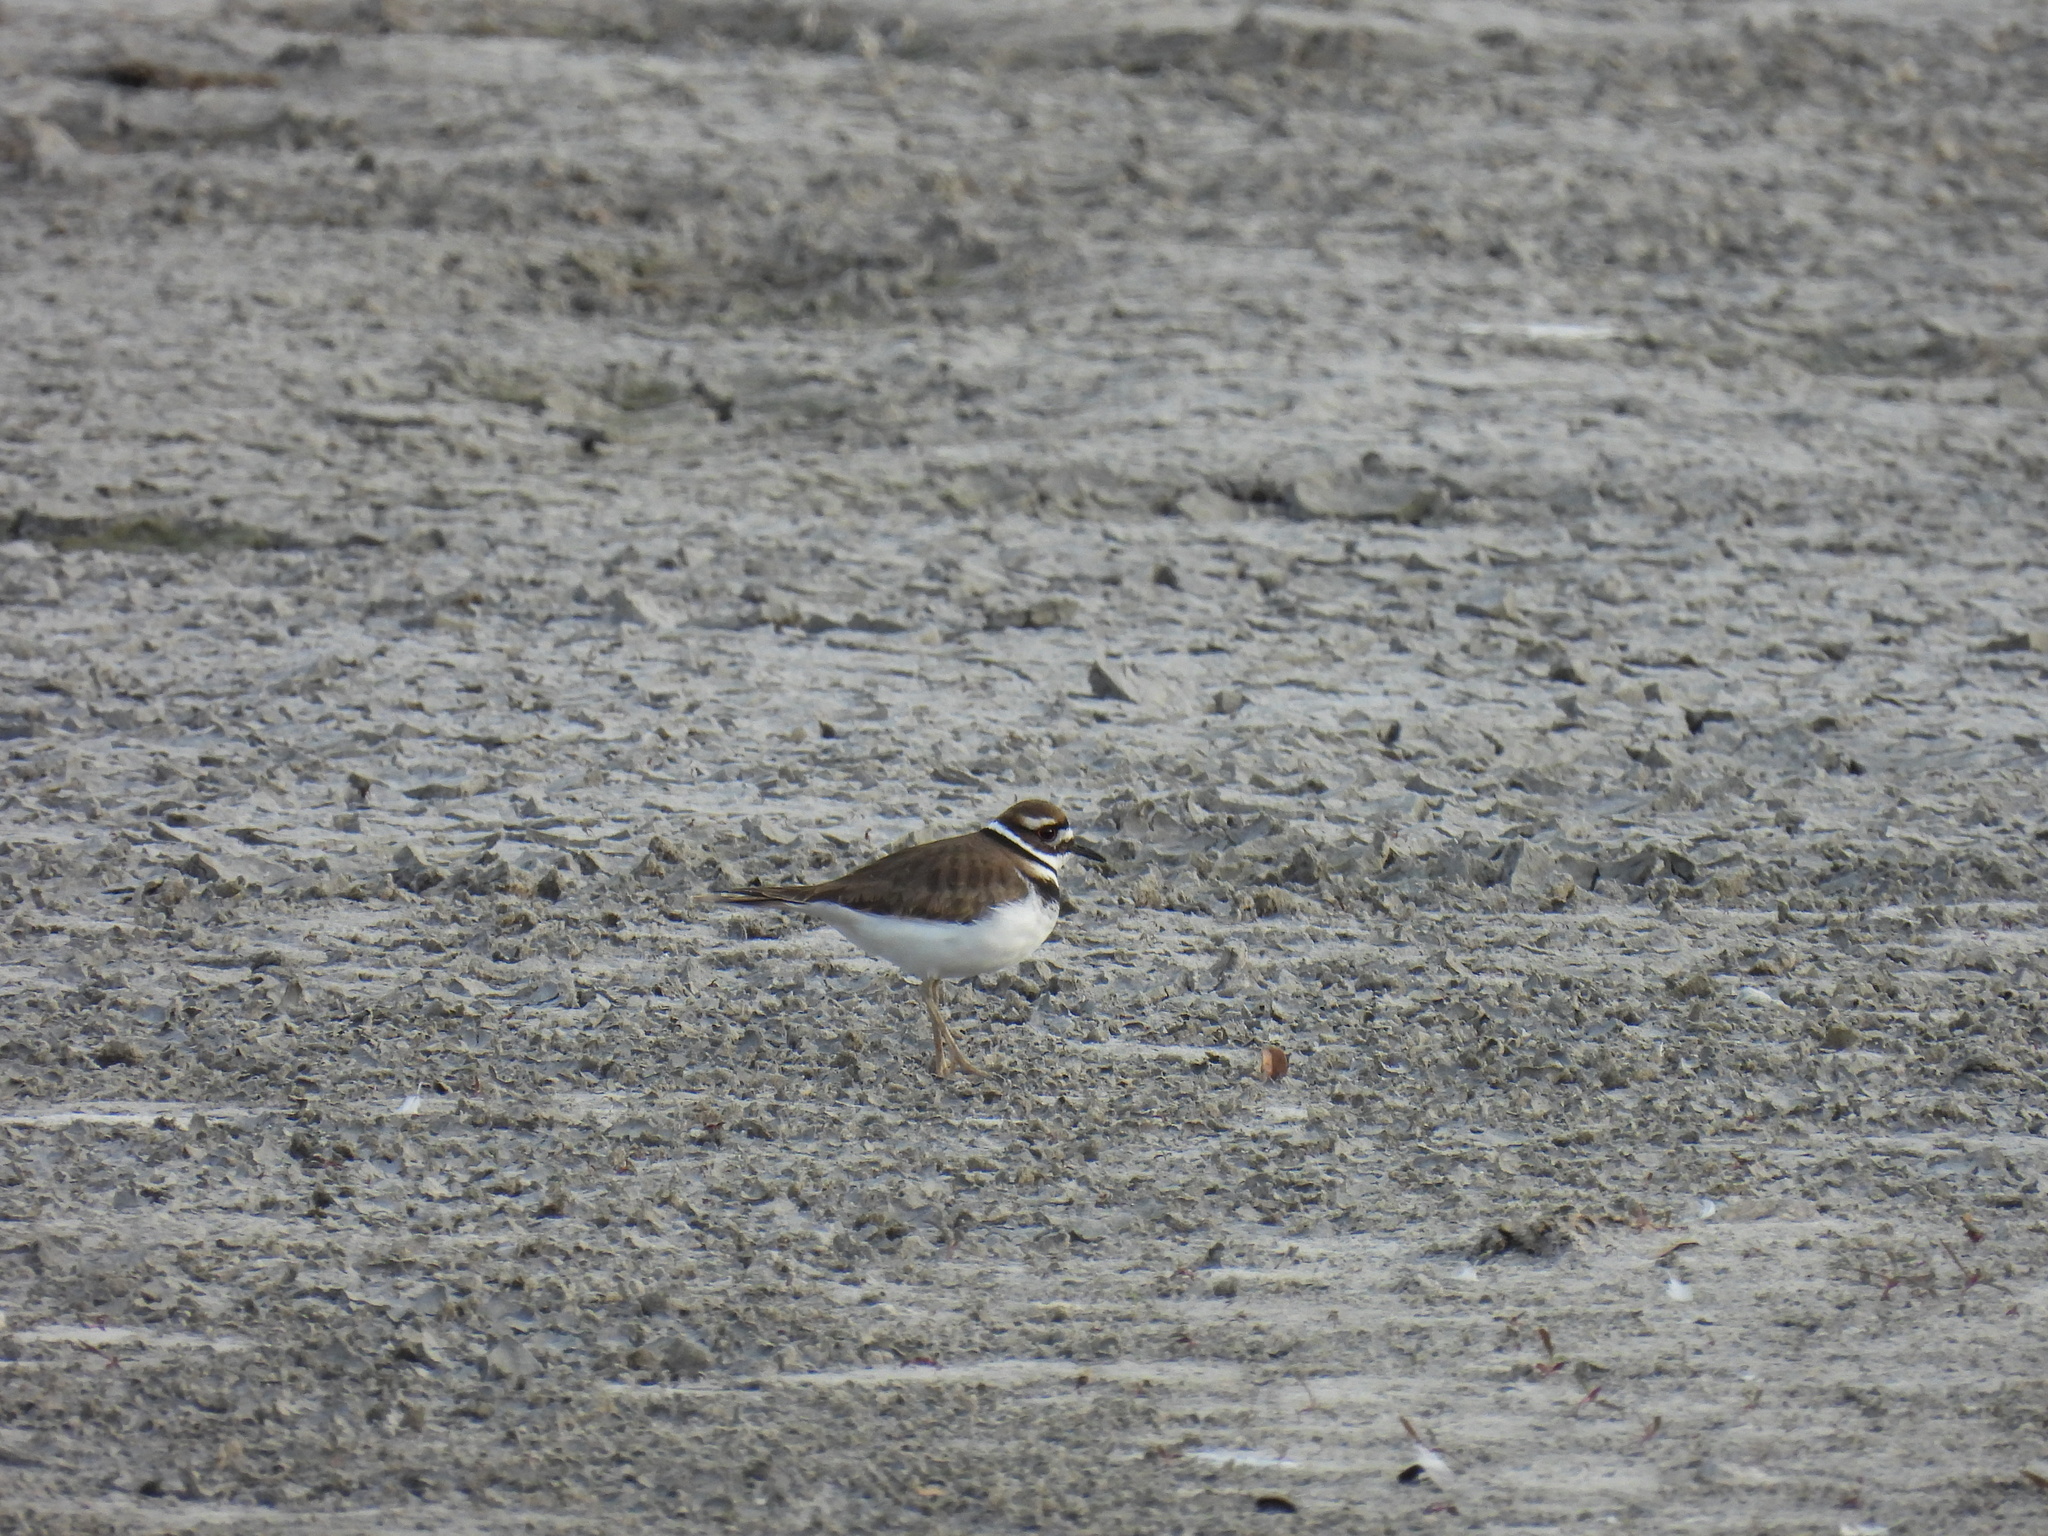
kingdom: Animalia
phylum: Chordata
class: Aves
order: Charadriiformes
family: Charadriidae
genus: Charadrius
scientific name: Charadrius vociferus
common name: Killdeer
